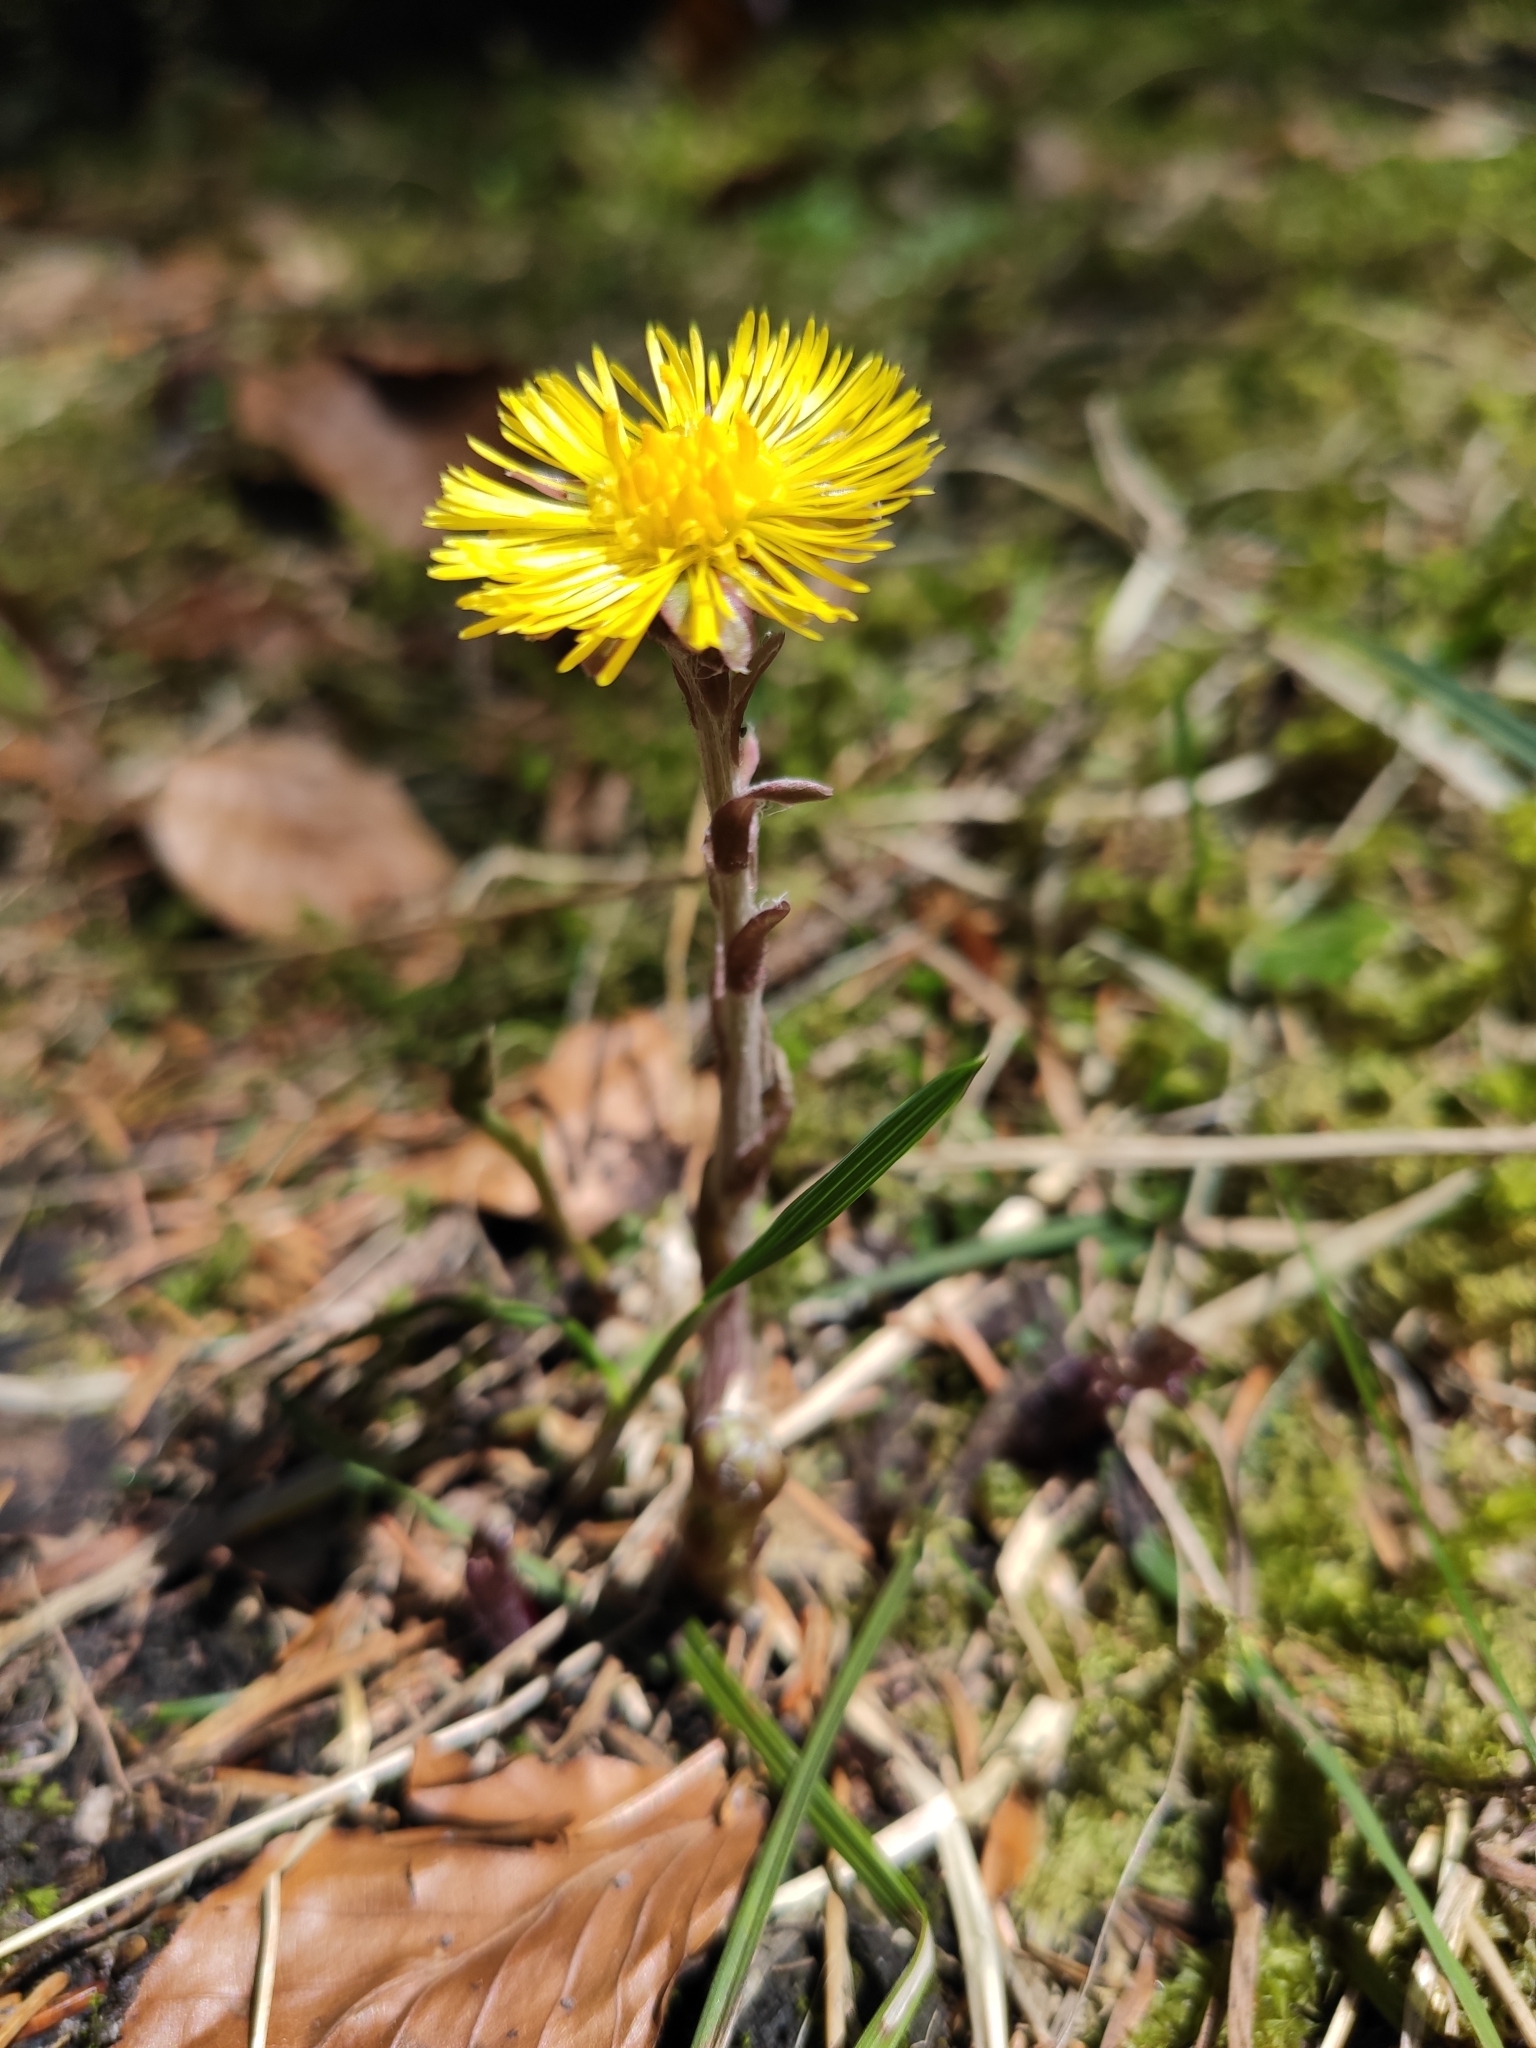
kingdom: Plantae
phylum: Tracheophyta
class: Magnoliopsida
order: Asterales
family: Asteraceae
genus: Tussilago
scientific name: Tussilago farfara
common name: Coltsfoot
